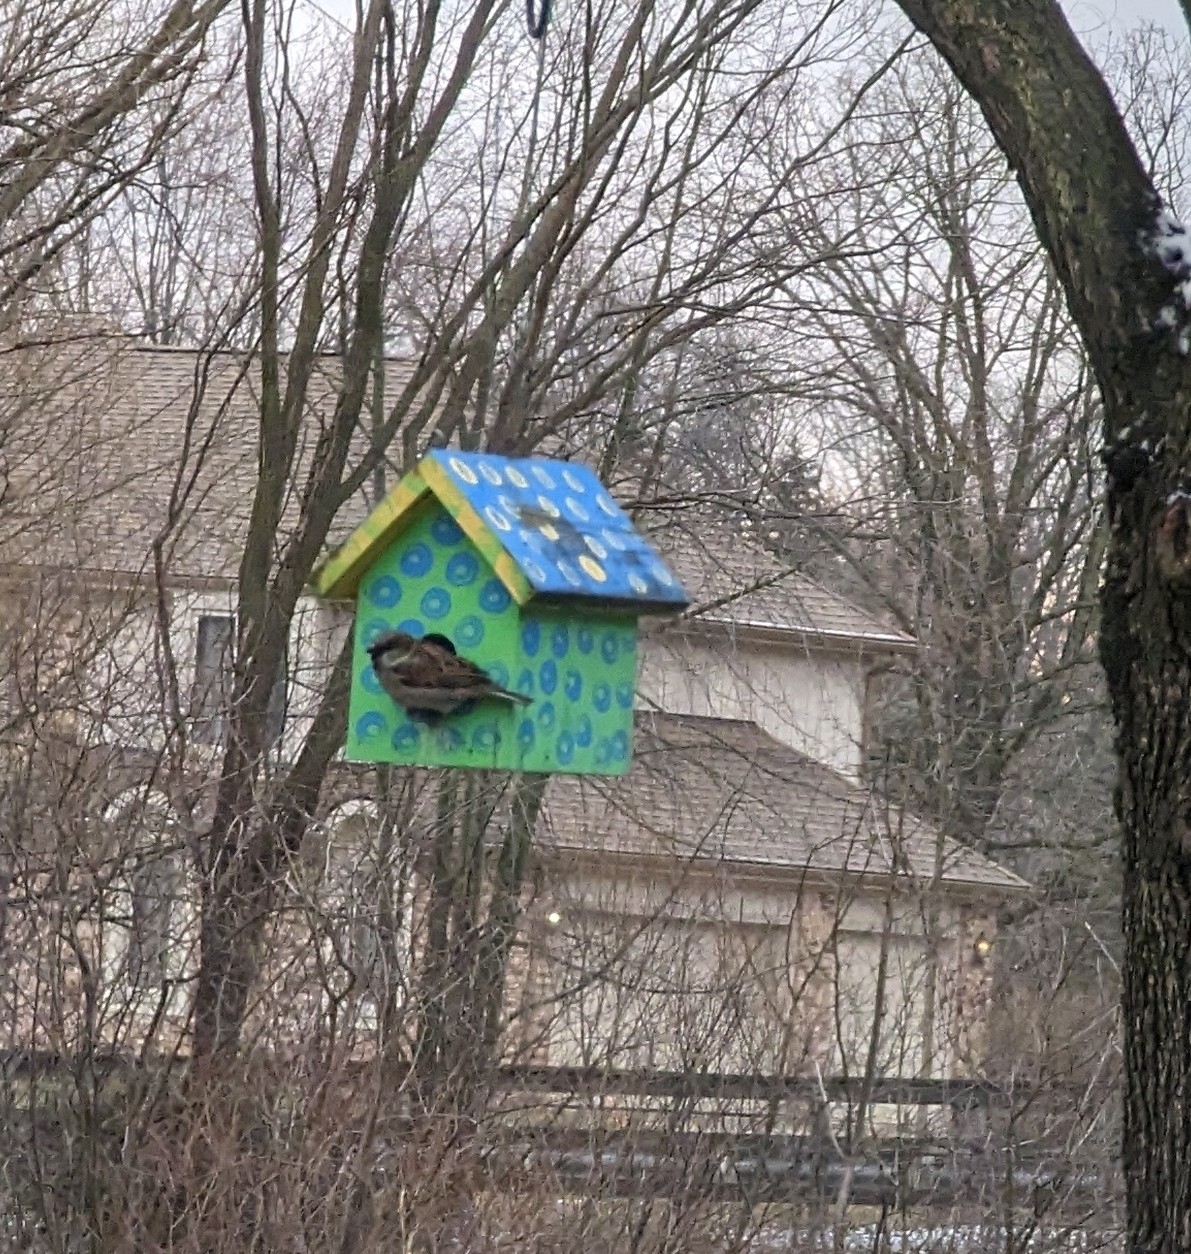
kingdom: Animalia
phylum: Chordata
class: Aves
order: Passeriformes
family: Passeridae
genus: Passer
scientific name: Passer domesticus
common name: House sparrow
